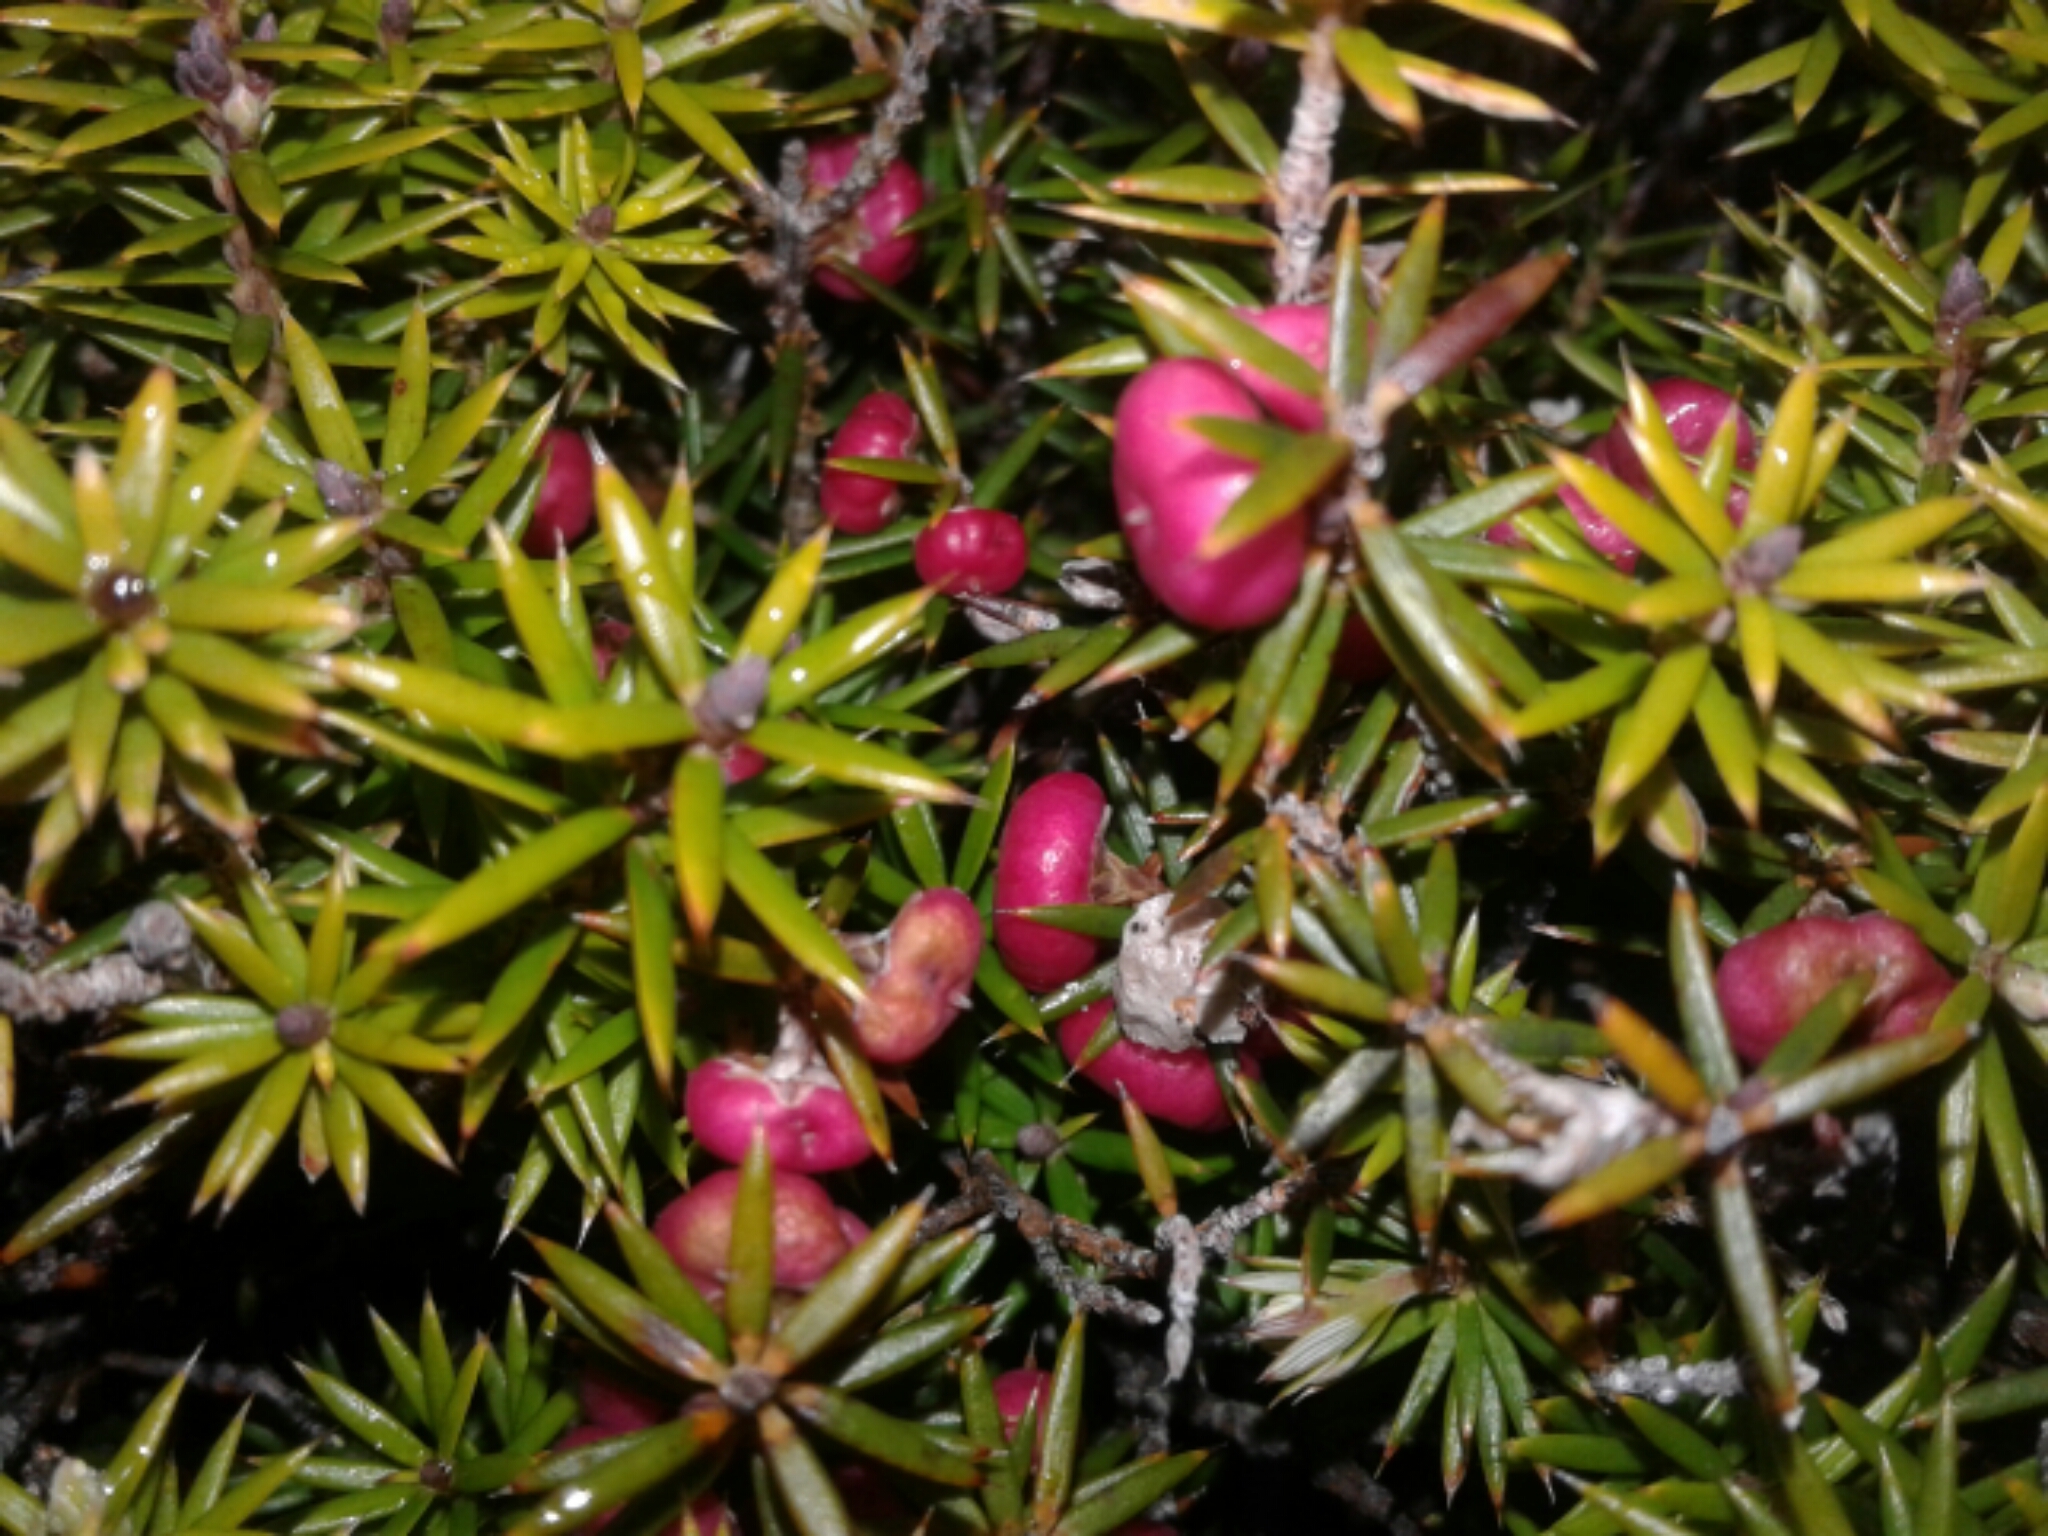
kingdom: Plantae
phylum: Tracheophyta
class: Magnoliopsida
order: Ericales
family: Ericaceae
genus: Leptecophylla
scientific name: Leptecophylla juniperina
